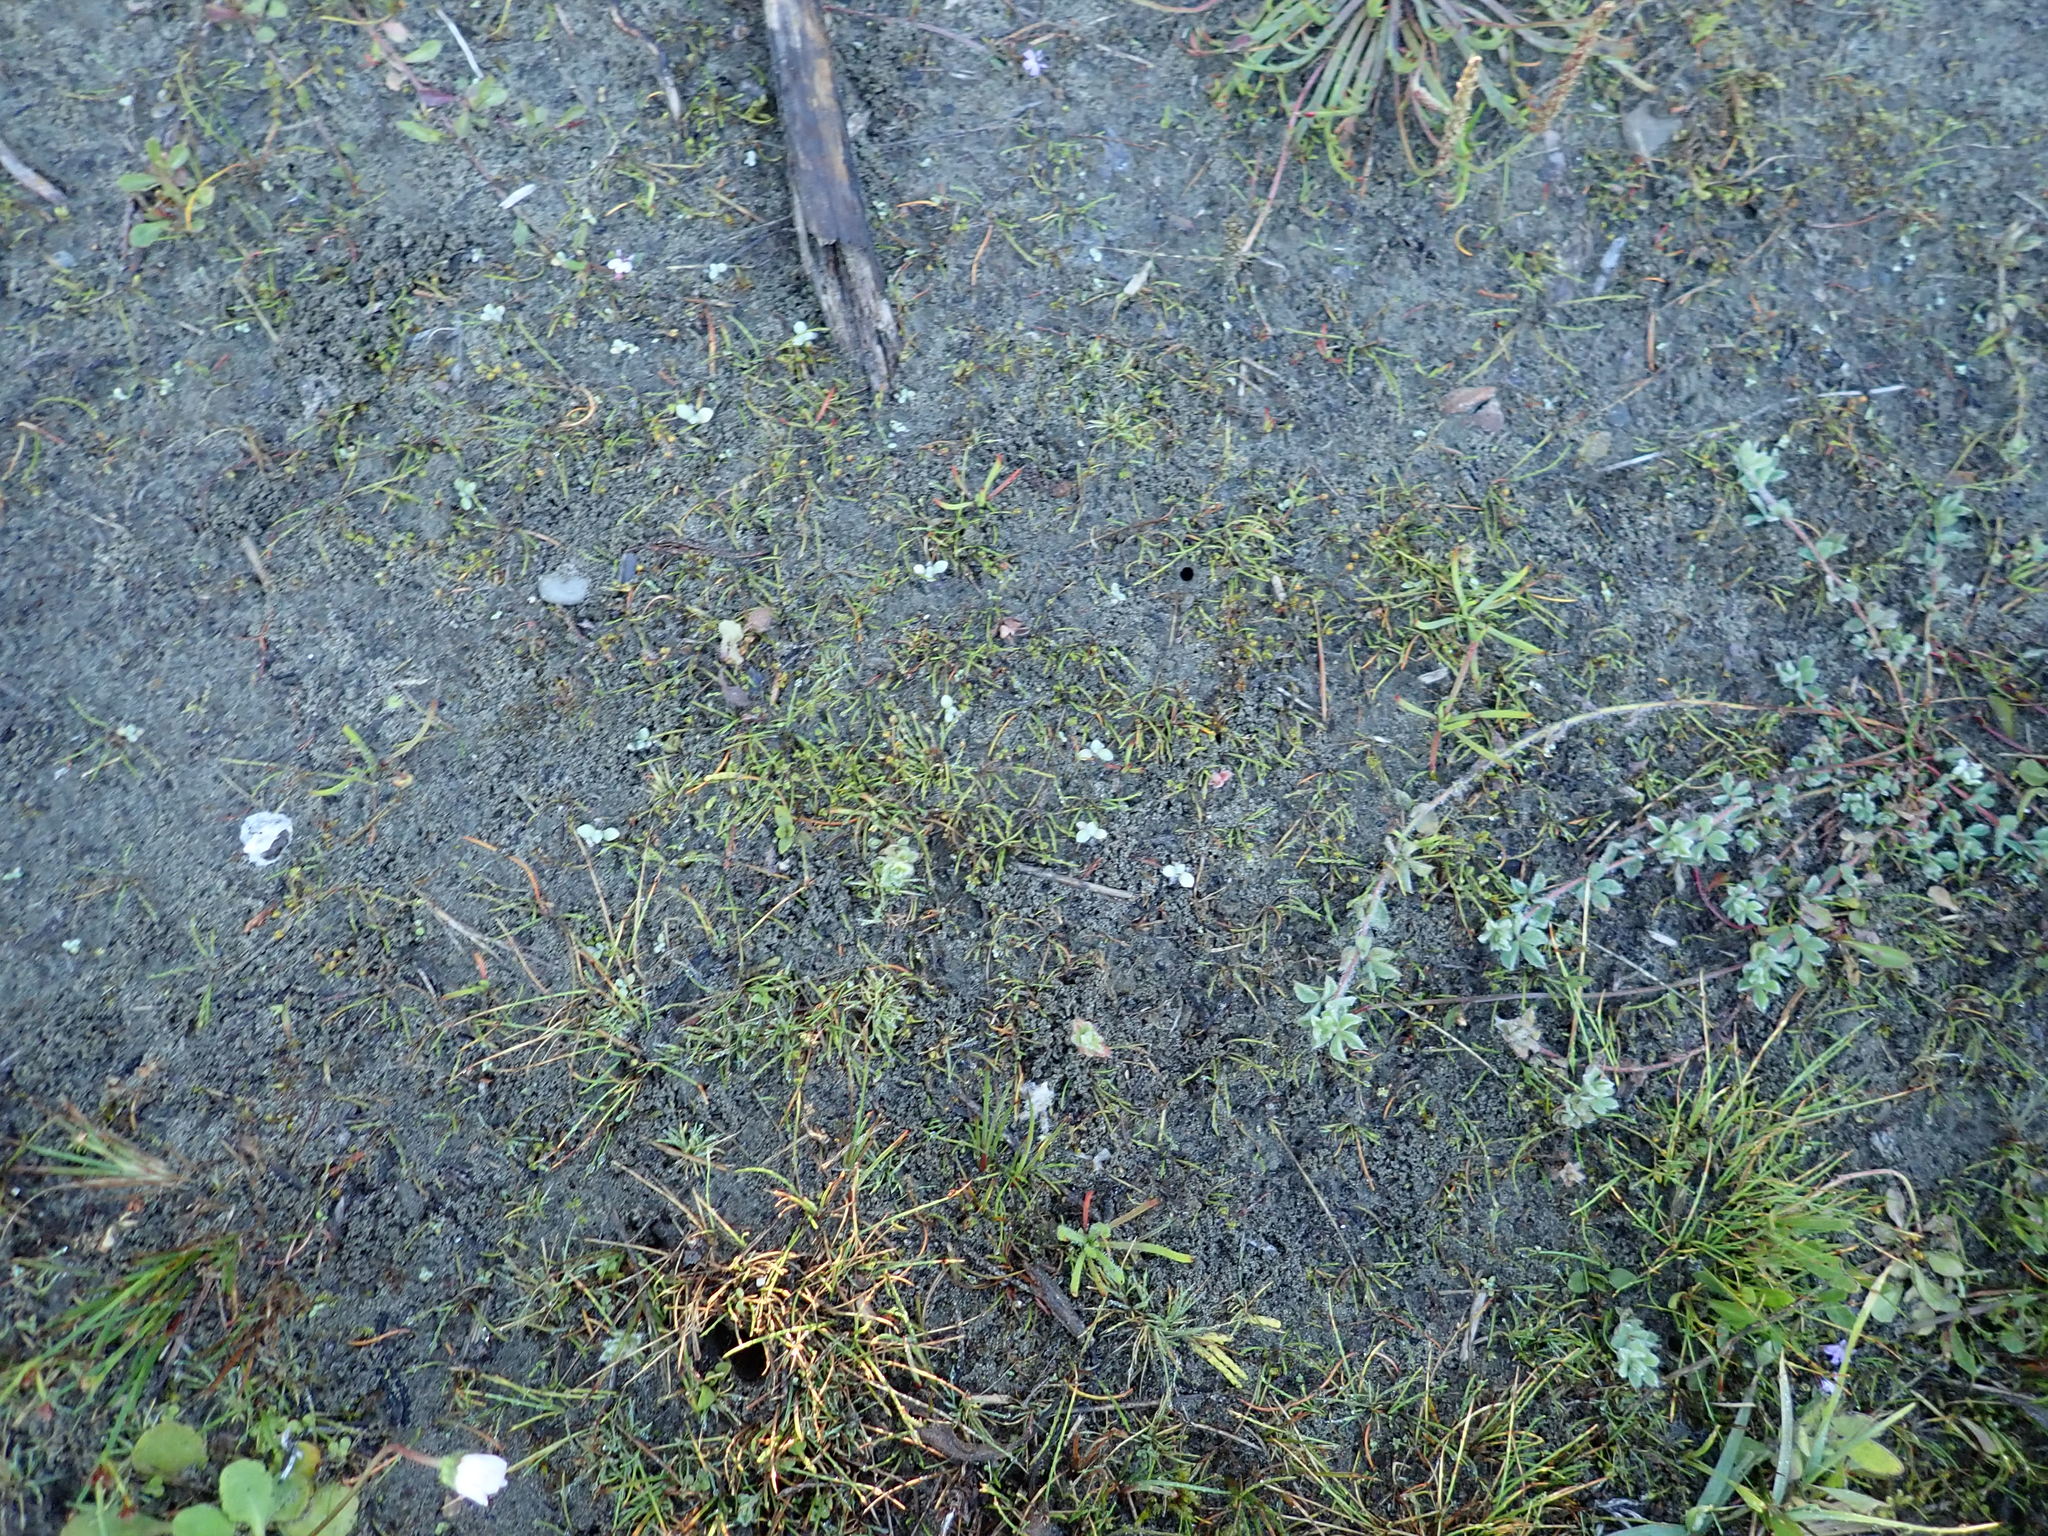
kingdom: Plantae
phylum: Tracheophyta
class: Liliopsida
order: Alismatales
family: Juncaginaceae
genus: Triglochin
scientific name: Triglochin striata
